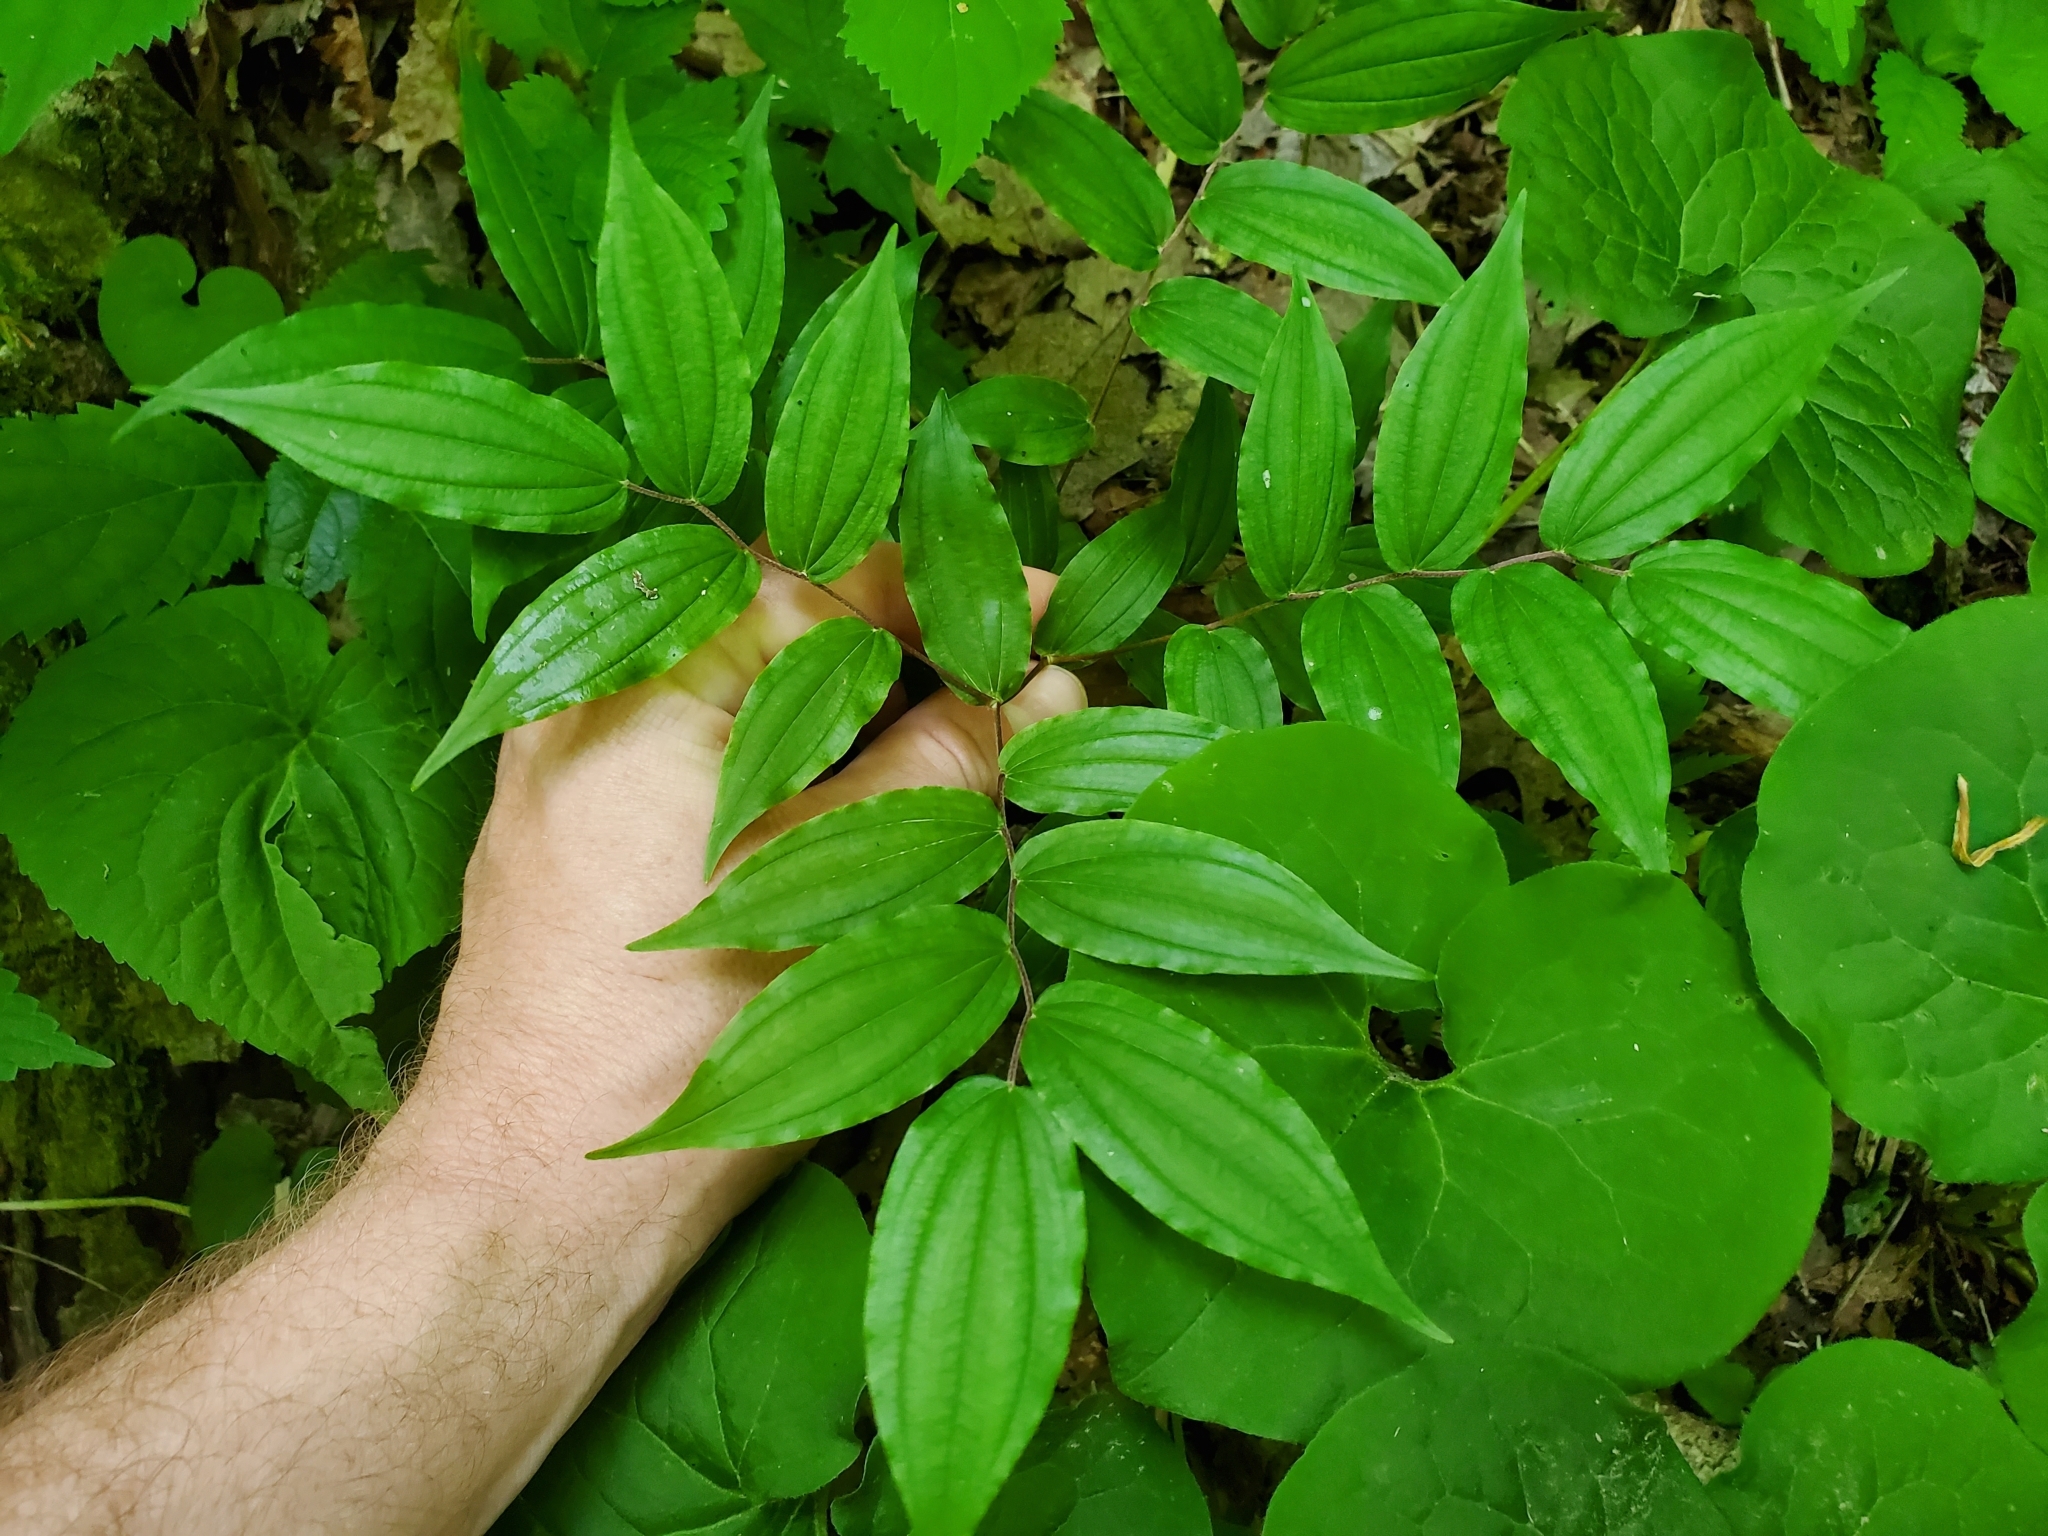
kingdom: Plantae
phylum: Tracheophyta
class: Liliopsida
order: Liliales
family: Liliaceae
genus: Prosartes
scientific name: Prosartes lanuginosa
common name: Hairy mandarin
